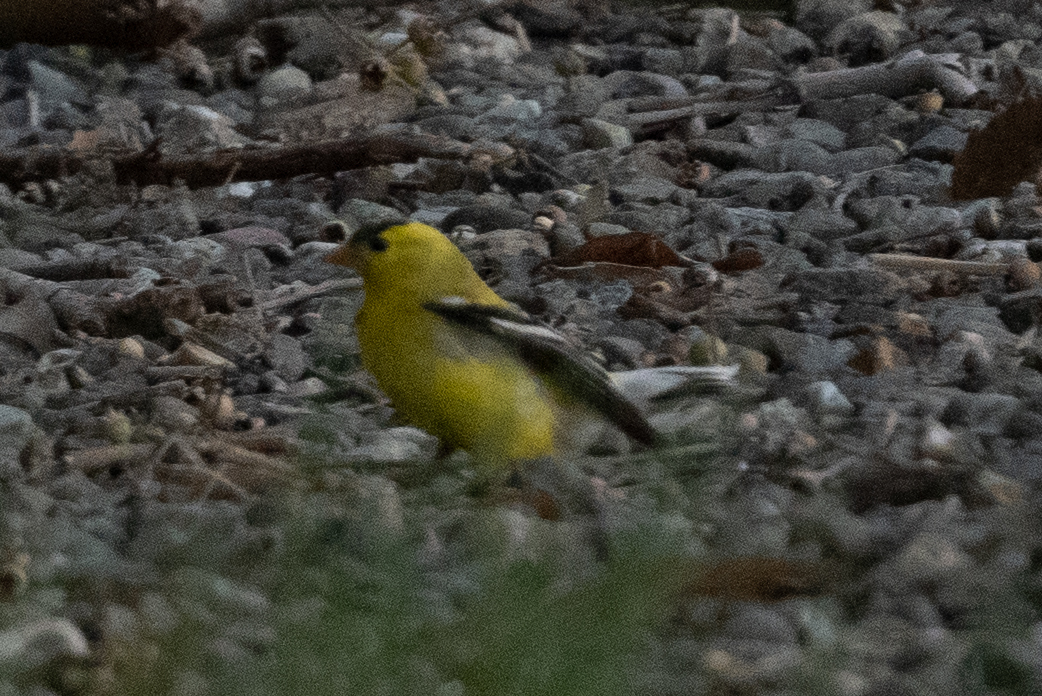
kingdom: Animalia
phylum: Chordata
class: Aves
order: Passeriformes
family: Fringillidae
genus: Spinus
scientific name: Spinus tristis
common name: American goldfinch
